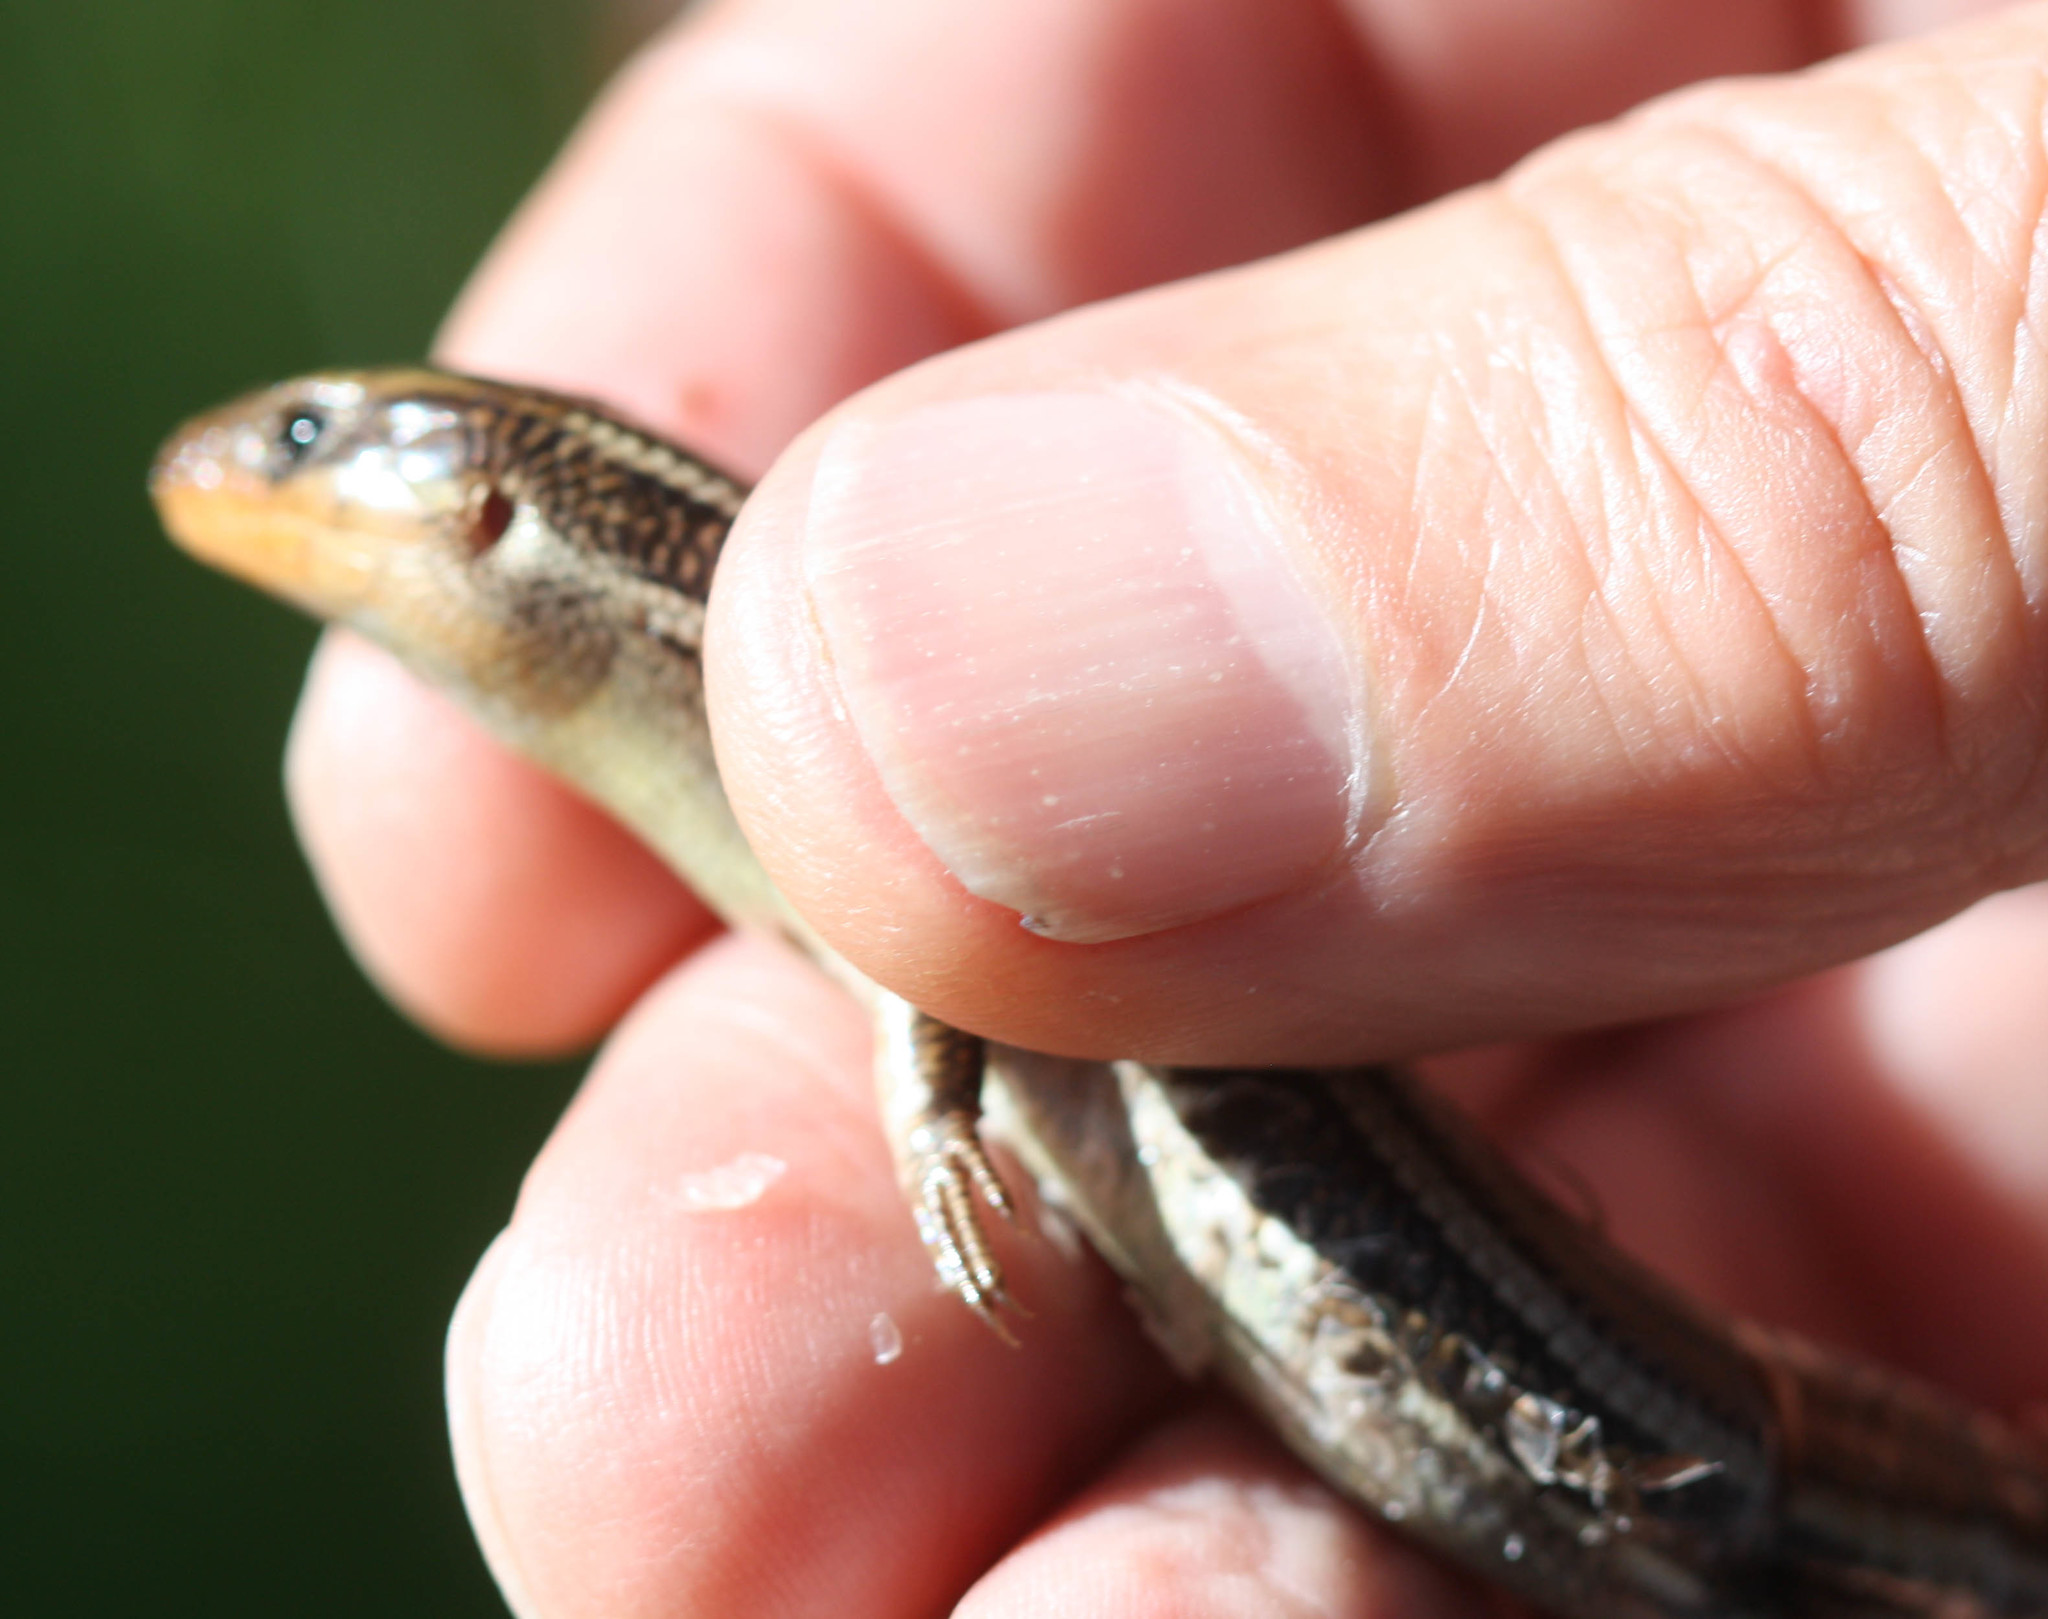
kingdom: Animalia
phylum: Chordata
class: Squamata
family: Scincidae
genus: Plestiodon
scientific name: Plestiodon skiltonianus
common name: Coronado island skink [interparietalis]
